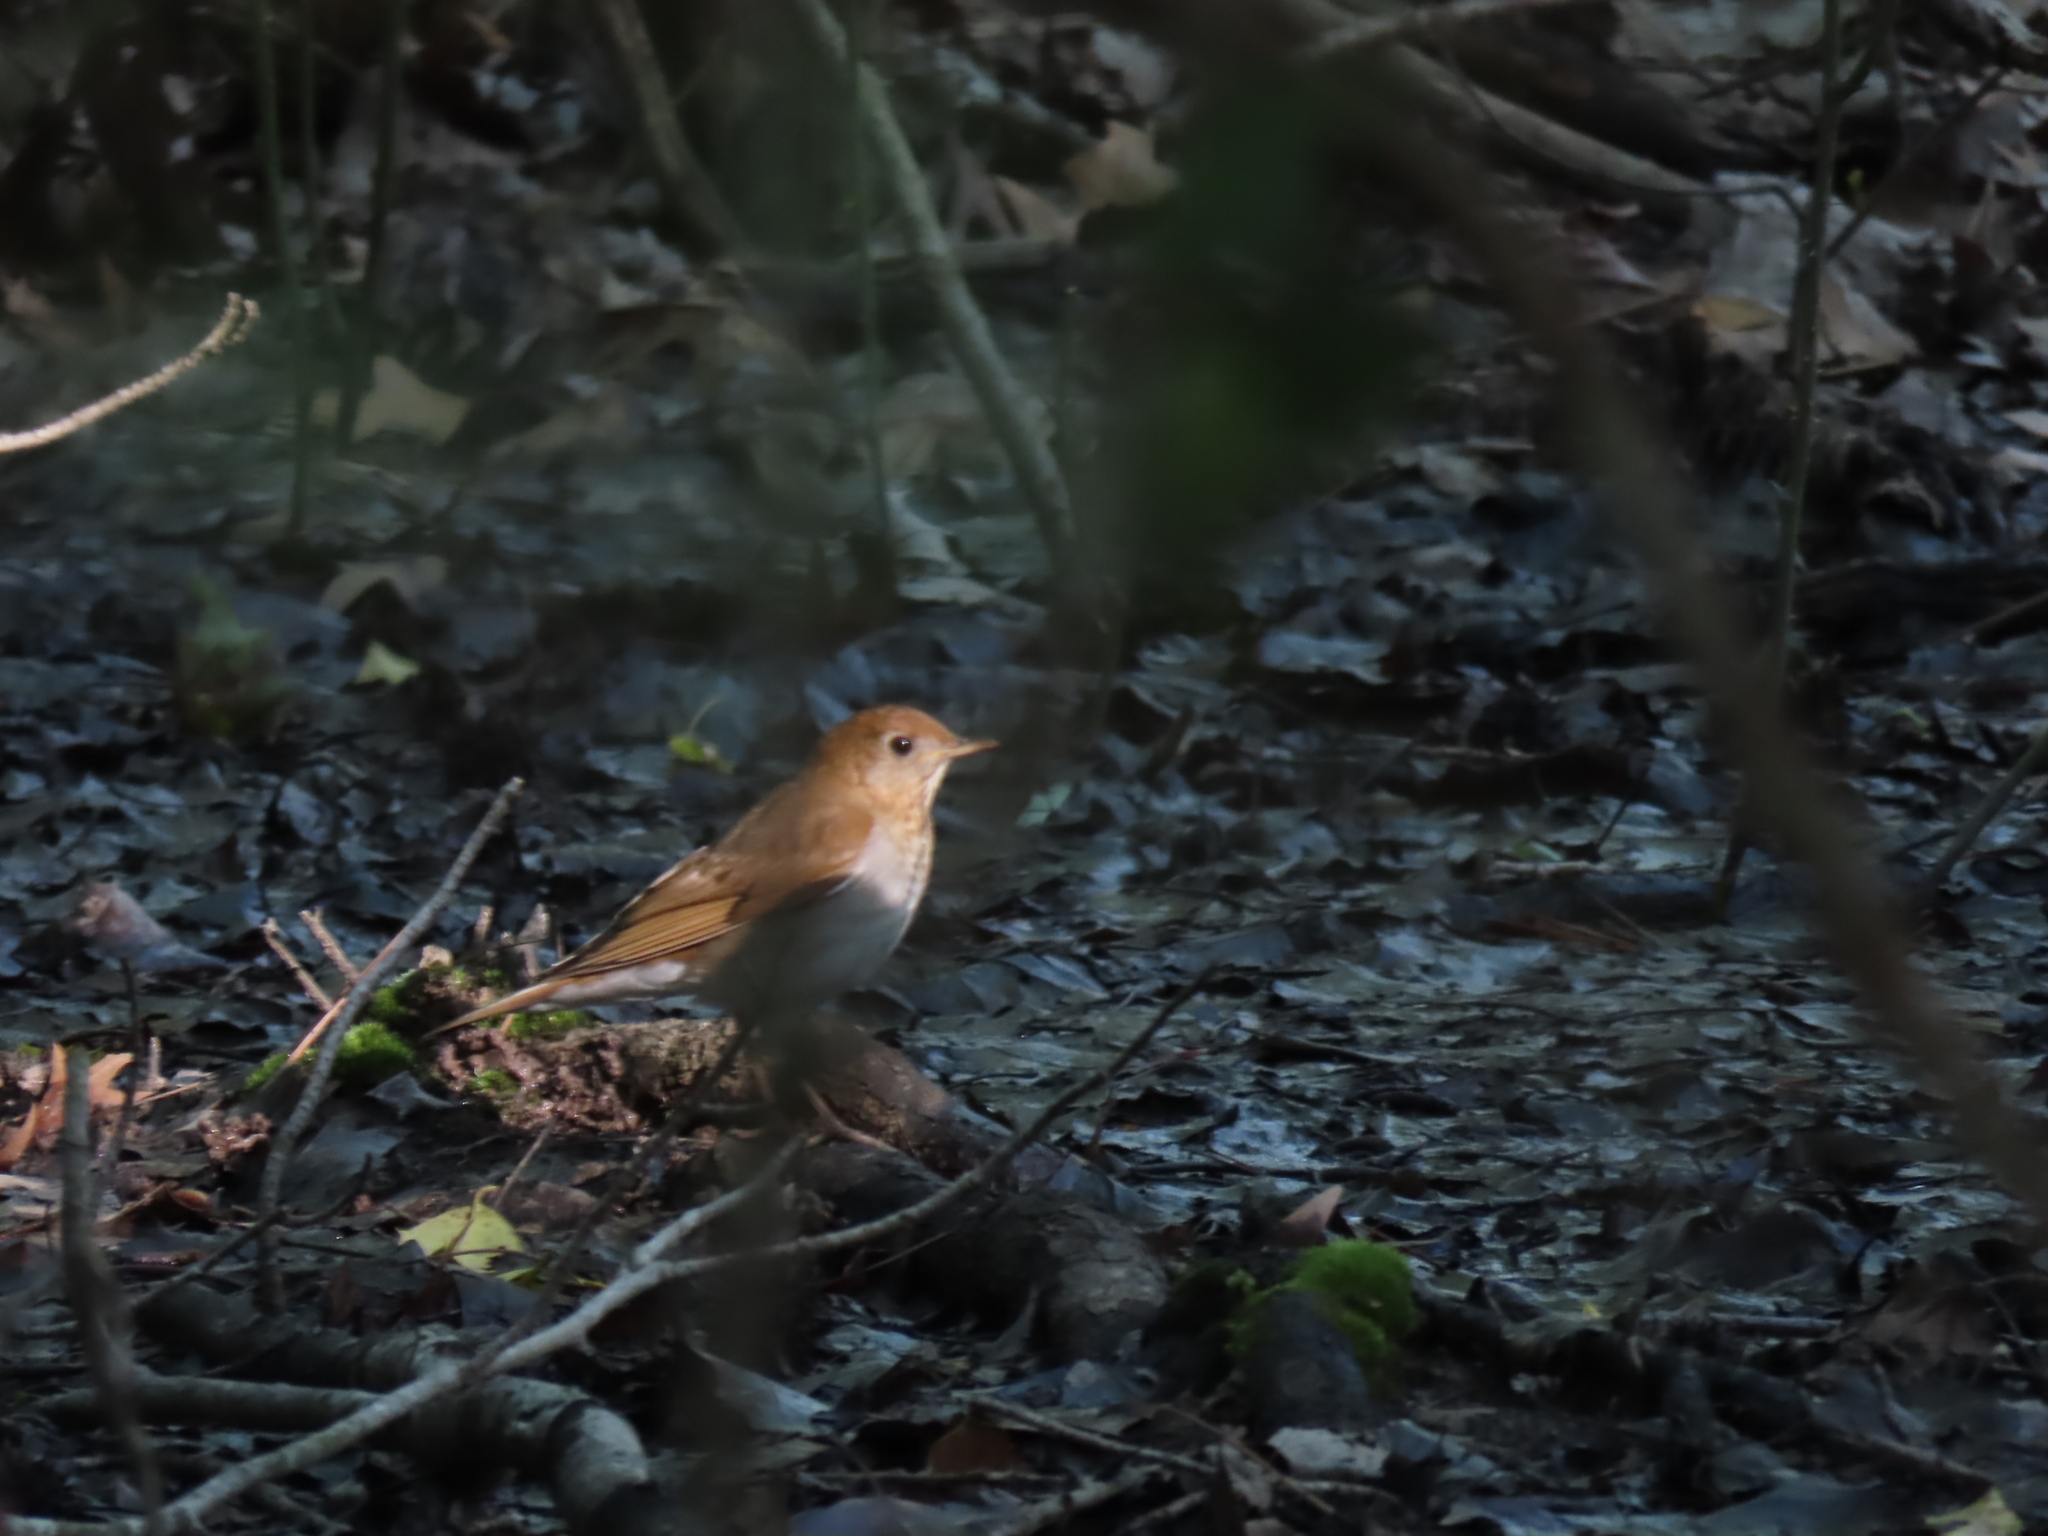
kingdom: Animalia
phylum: Chordata
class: Aves
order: Passeriformes
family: Turdidae
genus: Catharus
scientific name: Catharus fuscescens
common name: Veery
